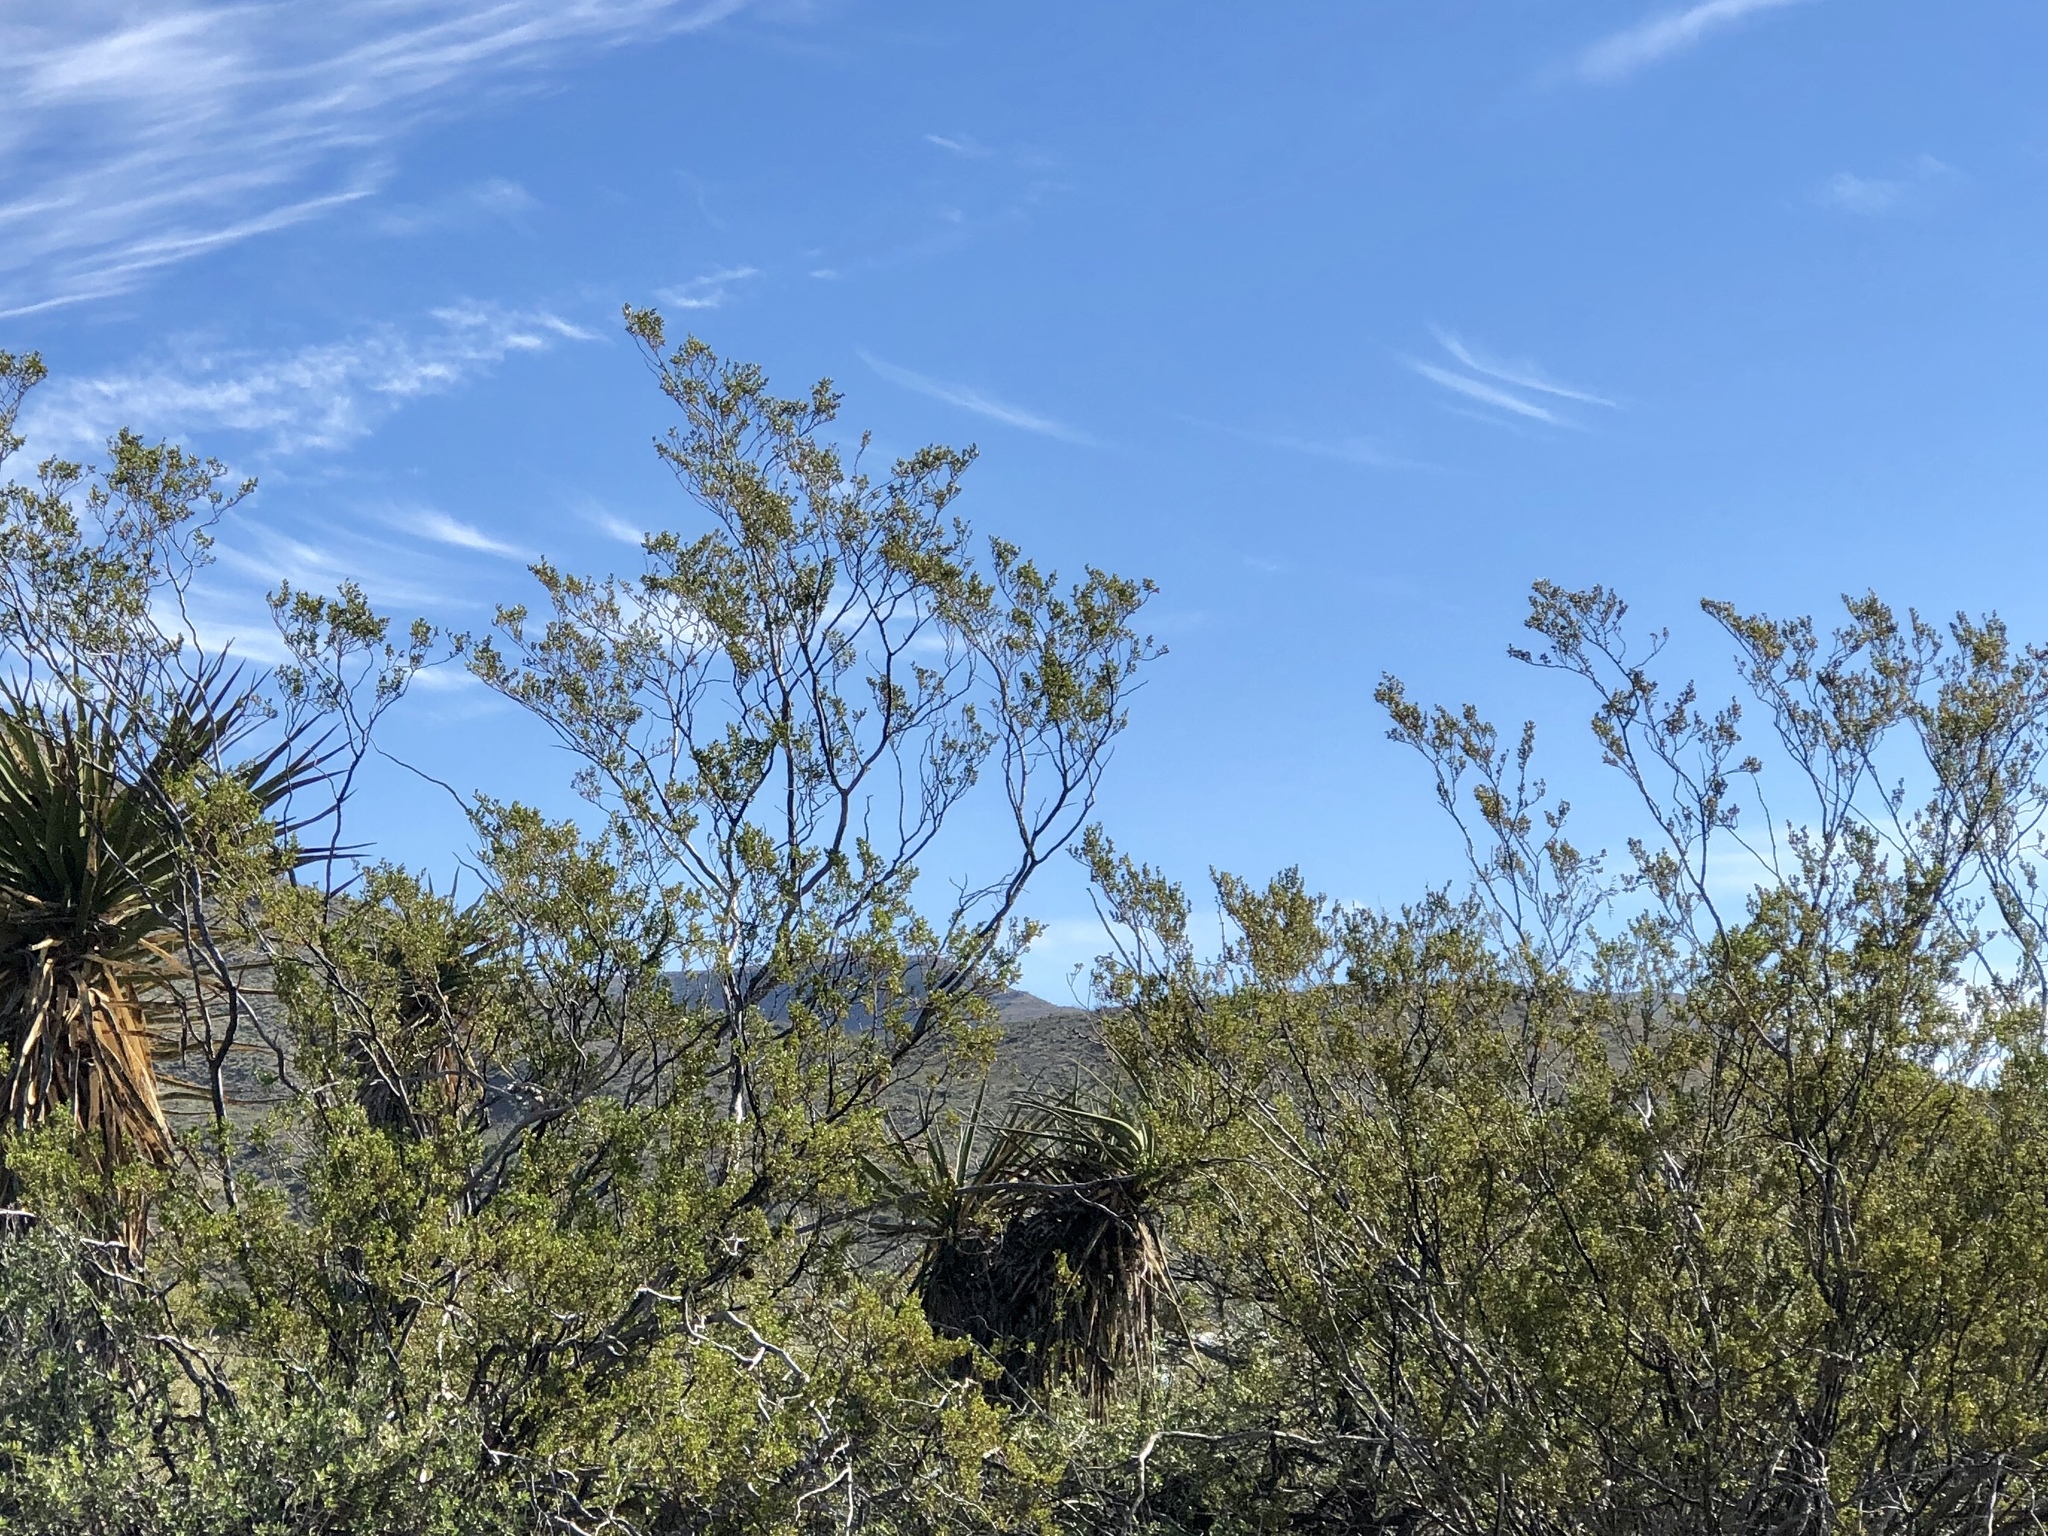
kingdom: Plantae
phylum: Tracheophyta
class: Magnoliopsida
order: Zygophyllales
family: Zygophyllaceae
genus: Larrea
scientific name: Larrea tridentata
